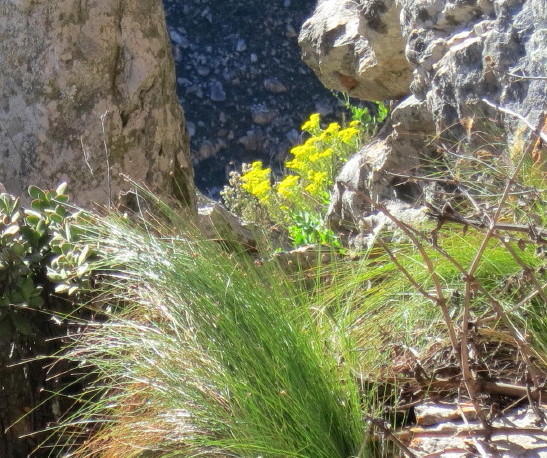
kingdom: Plantae
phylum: Tracheophyta
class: Magnoliopsida
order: Asterales
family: Asteraceae
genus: Othonna
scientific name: Othonna parviflora
